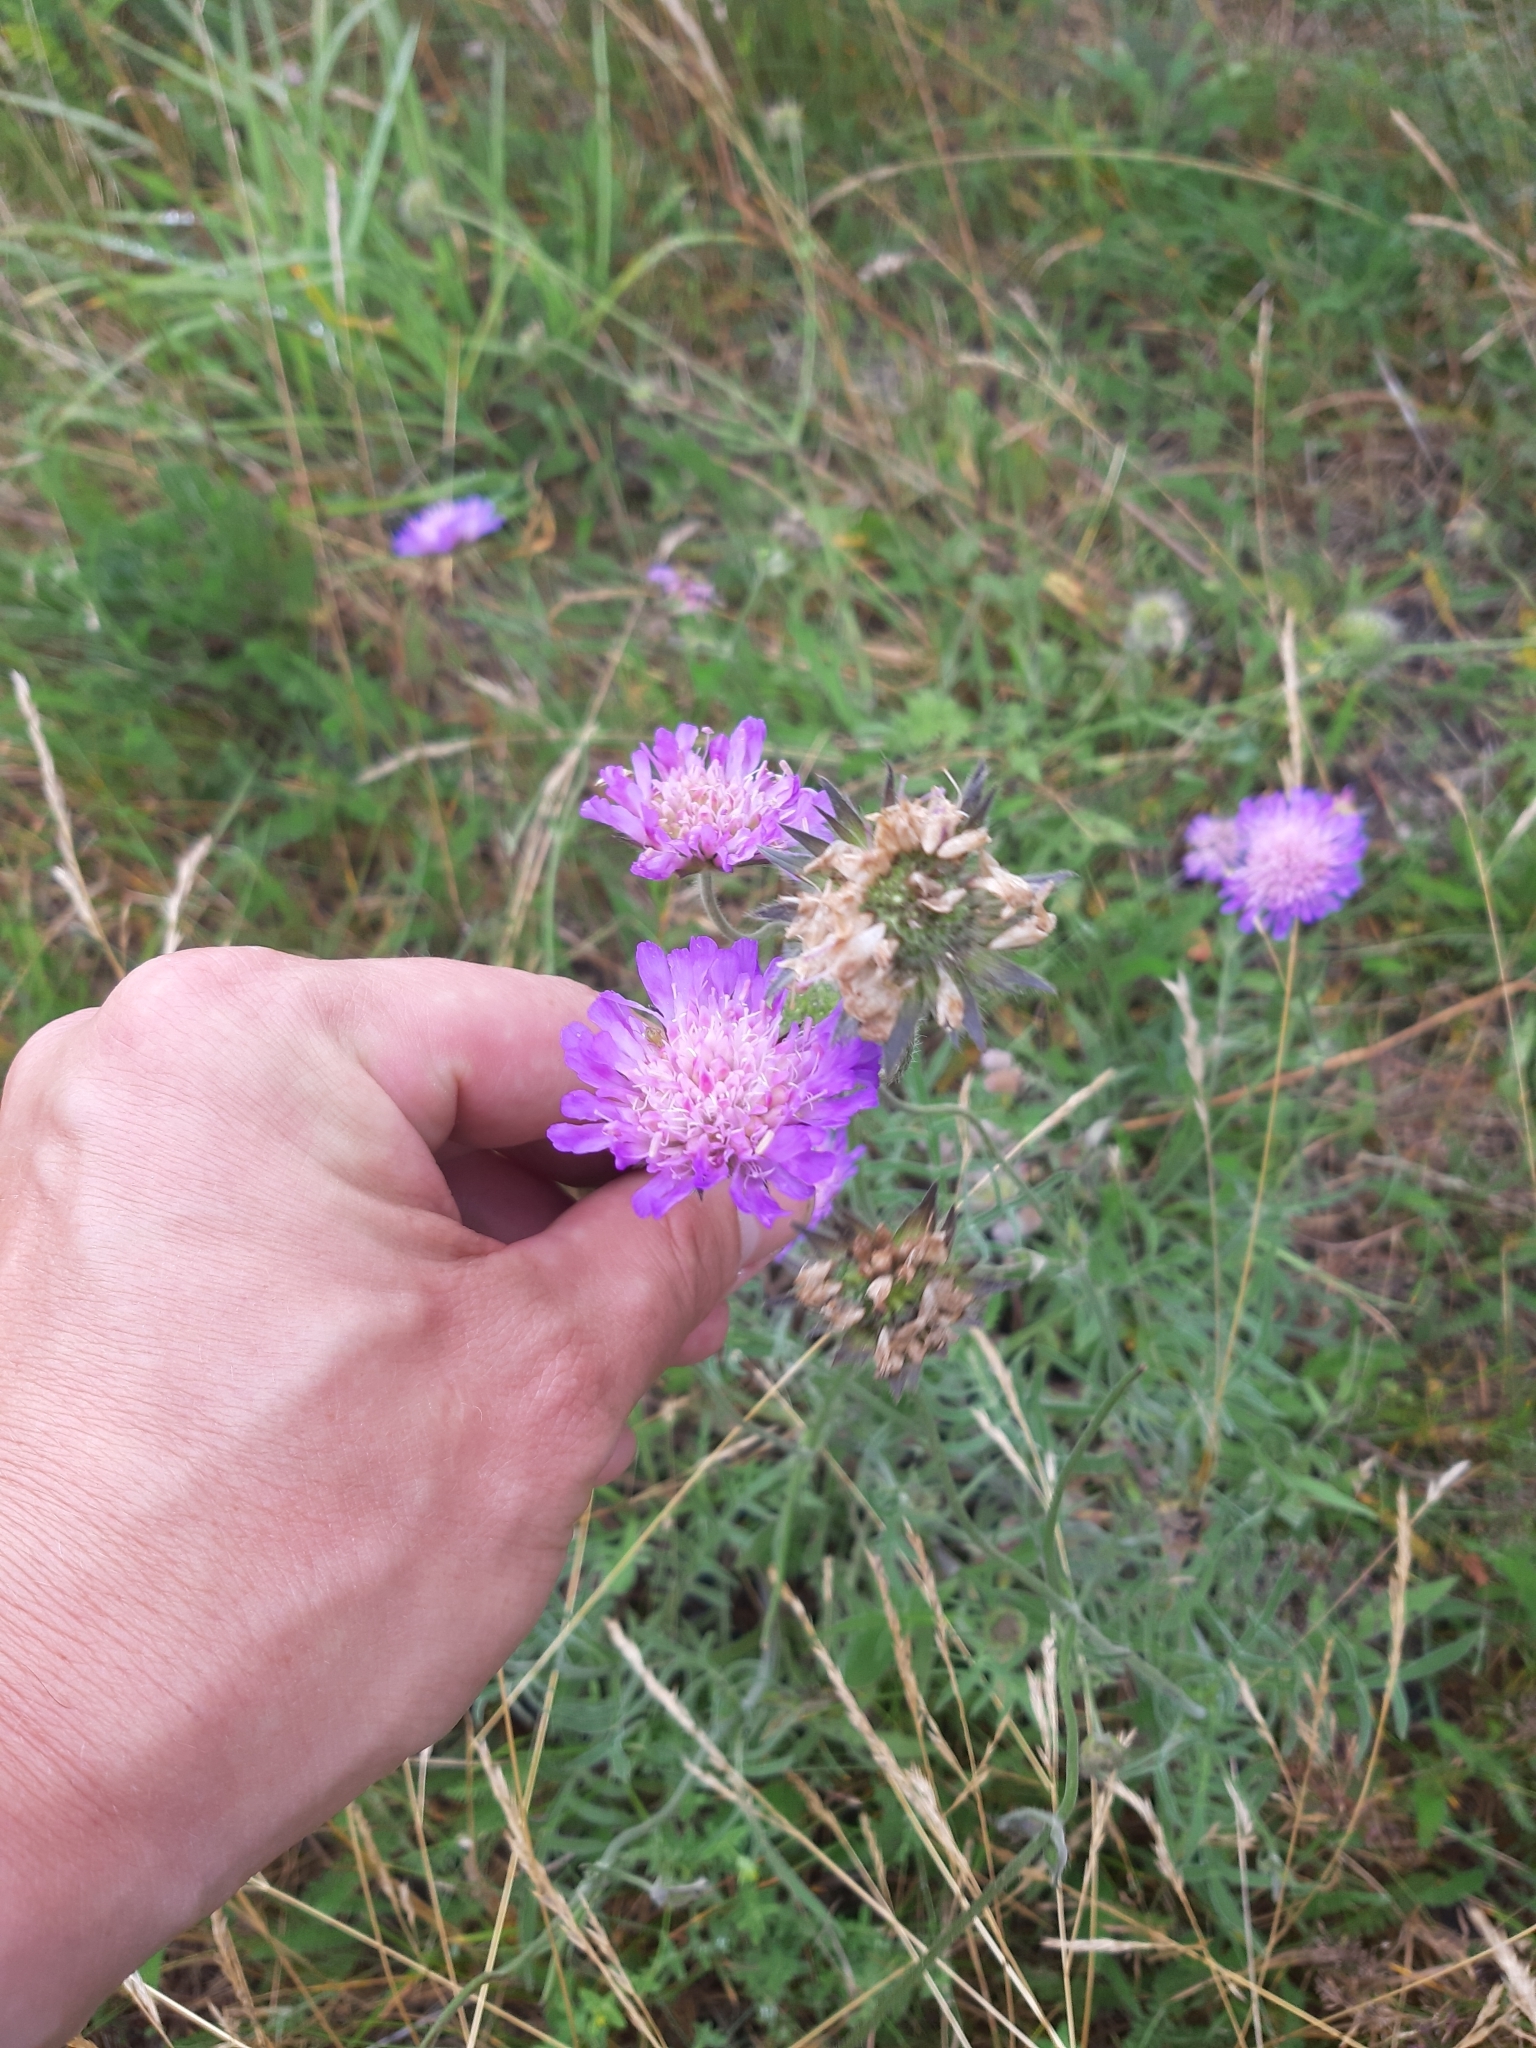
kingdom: Plantae
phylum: Tracheophyta
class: Magnoliopsida
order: Dipsacales
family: Caprifoliaceae
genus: Knautia
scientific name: Knautia arvensis
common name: Field scabiosa
